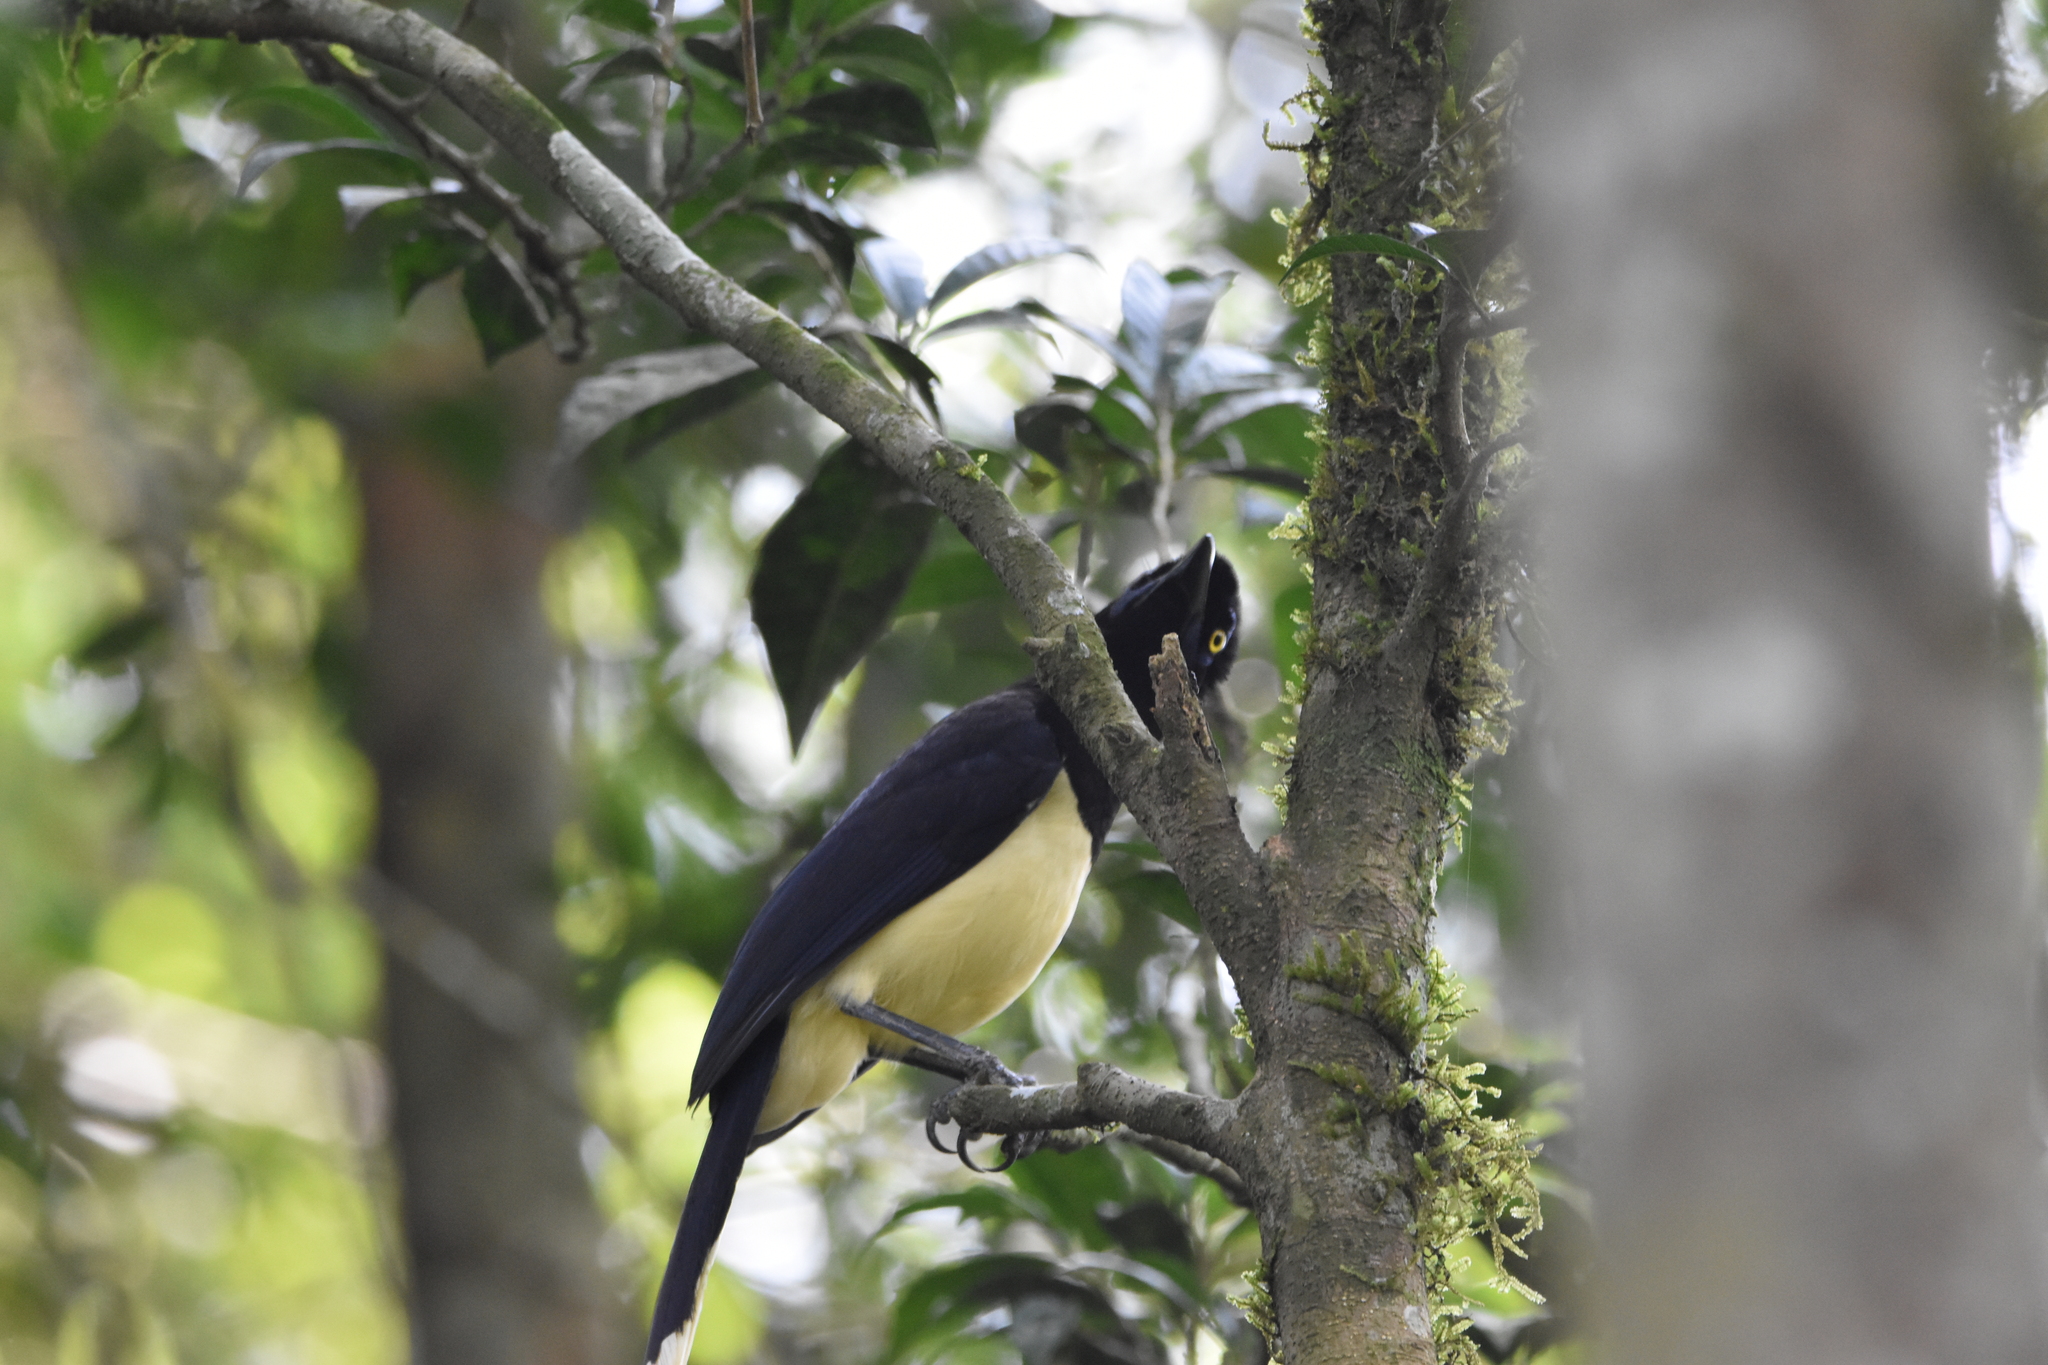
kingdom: Animalia
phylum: Chordata
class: Aves
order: Passeriformes
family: Corvidae
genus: Cyanocorax
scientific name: Cyanocorax chrysops
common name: Plush-crested jay
